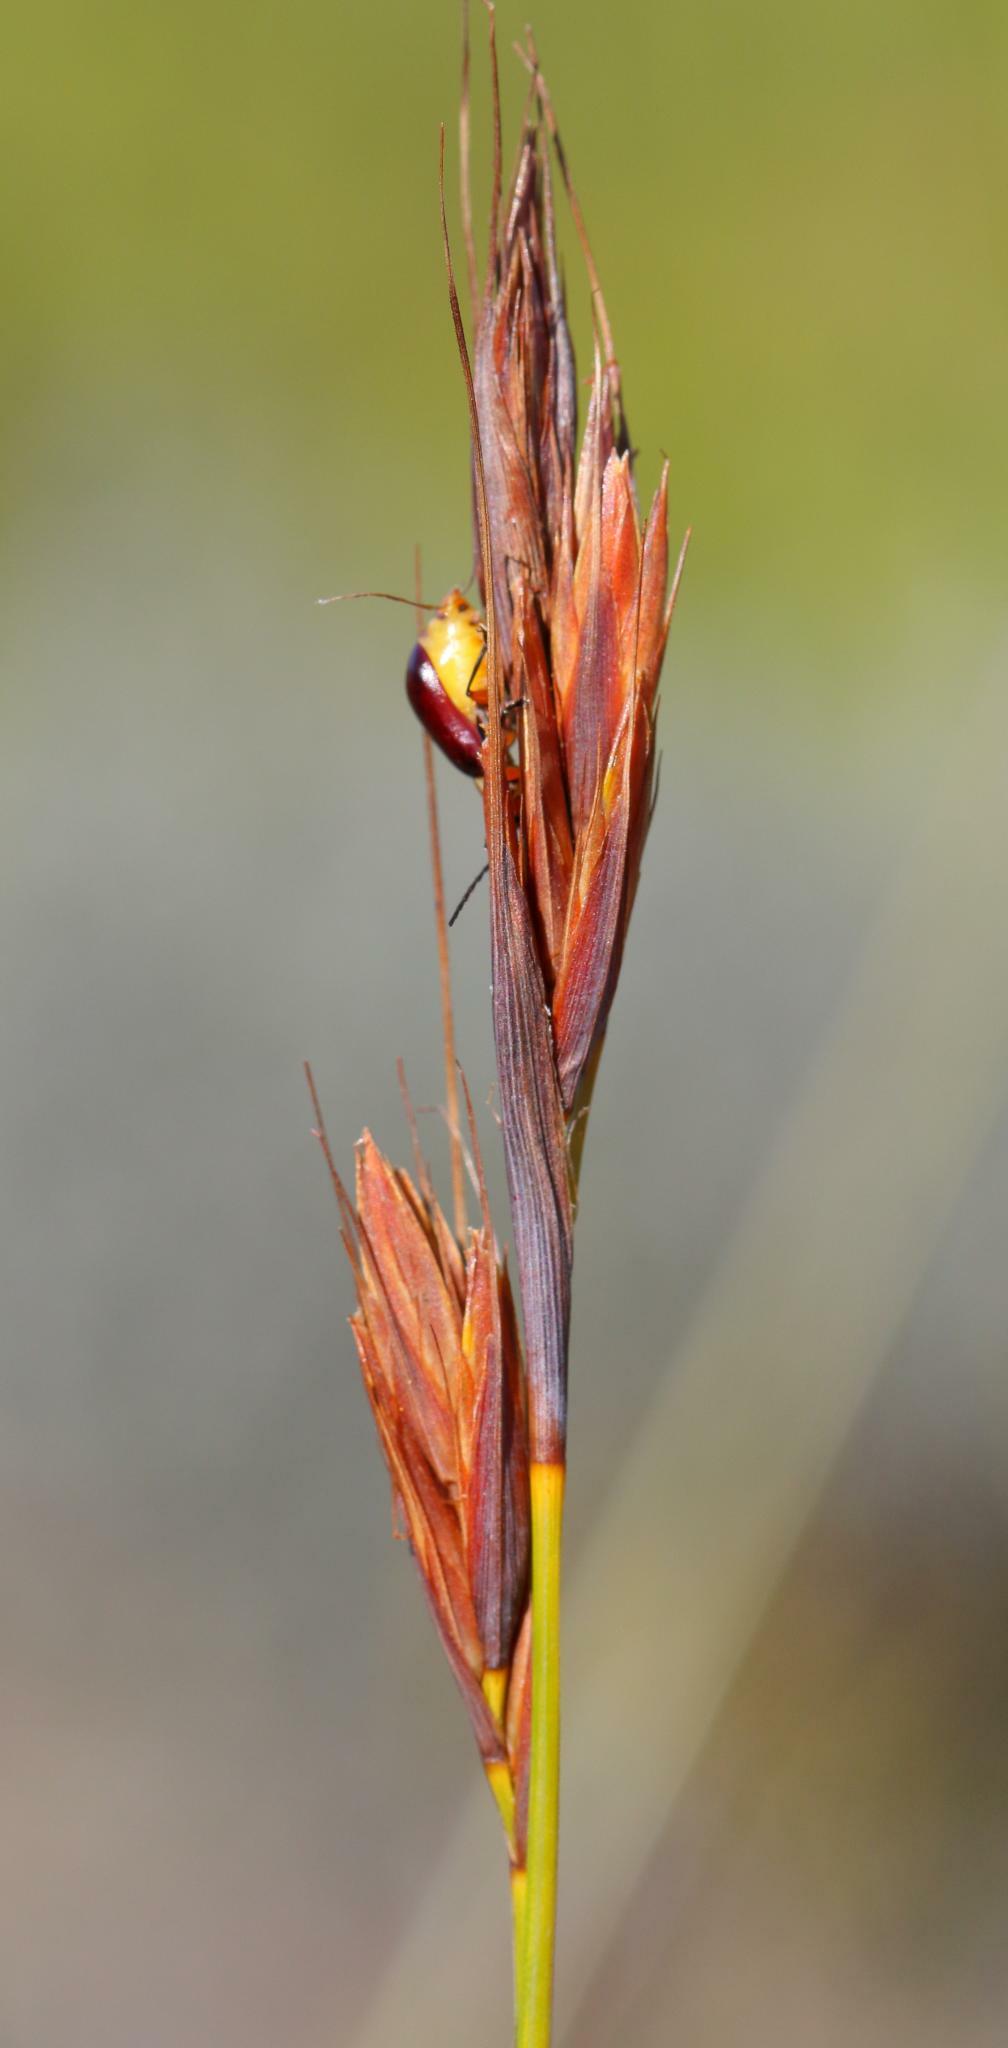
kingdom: Plantae
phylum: Tracheophyta
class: Liliopsida
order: Poales
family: Cyperaceae
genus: Tetraria
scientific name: Tetraria ustulata
